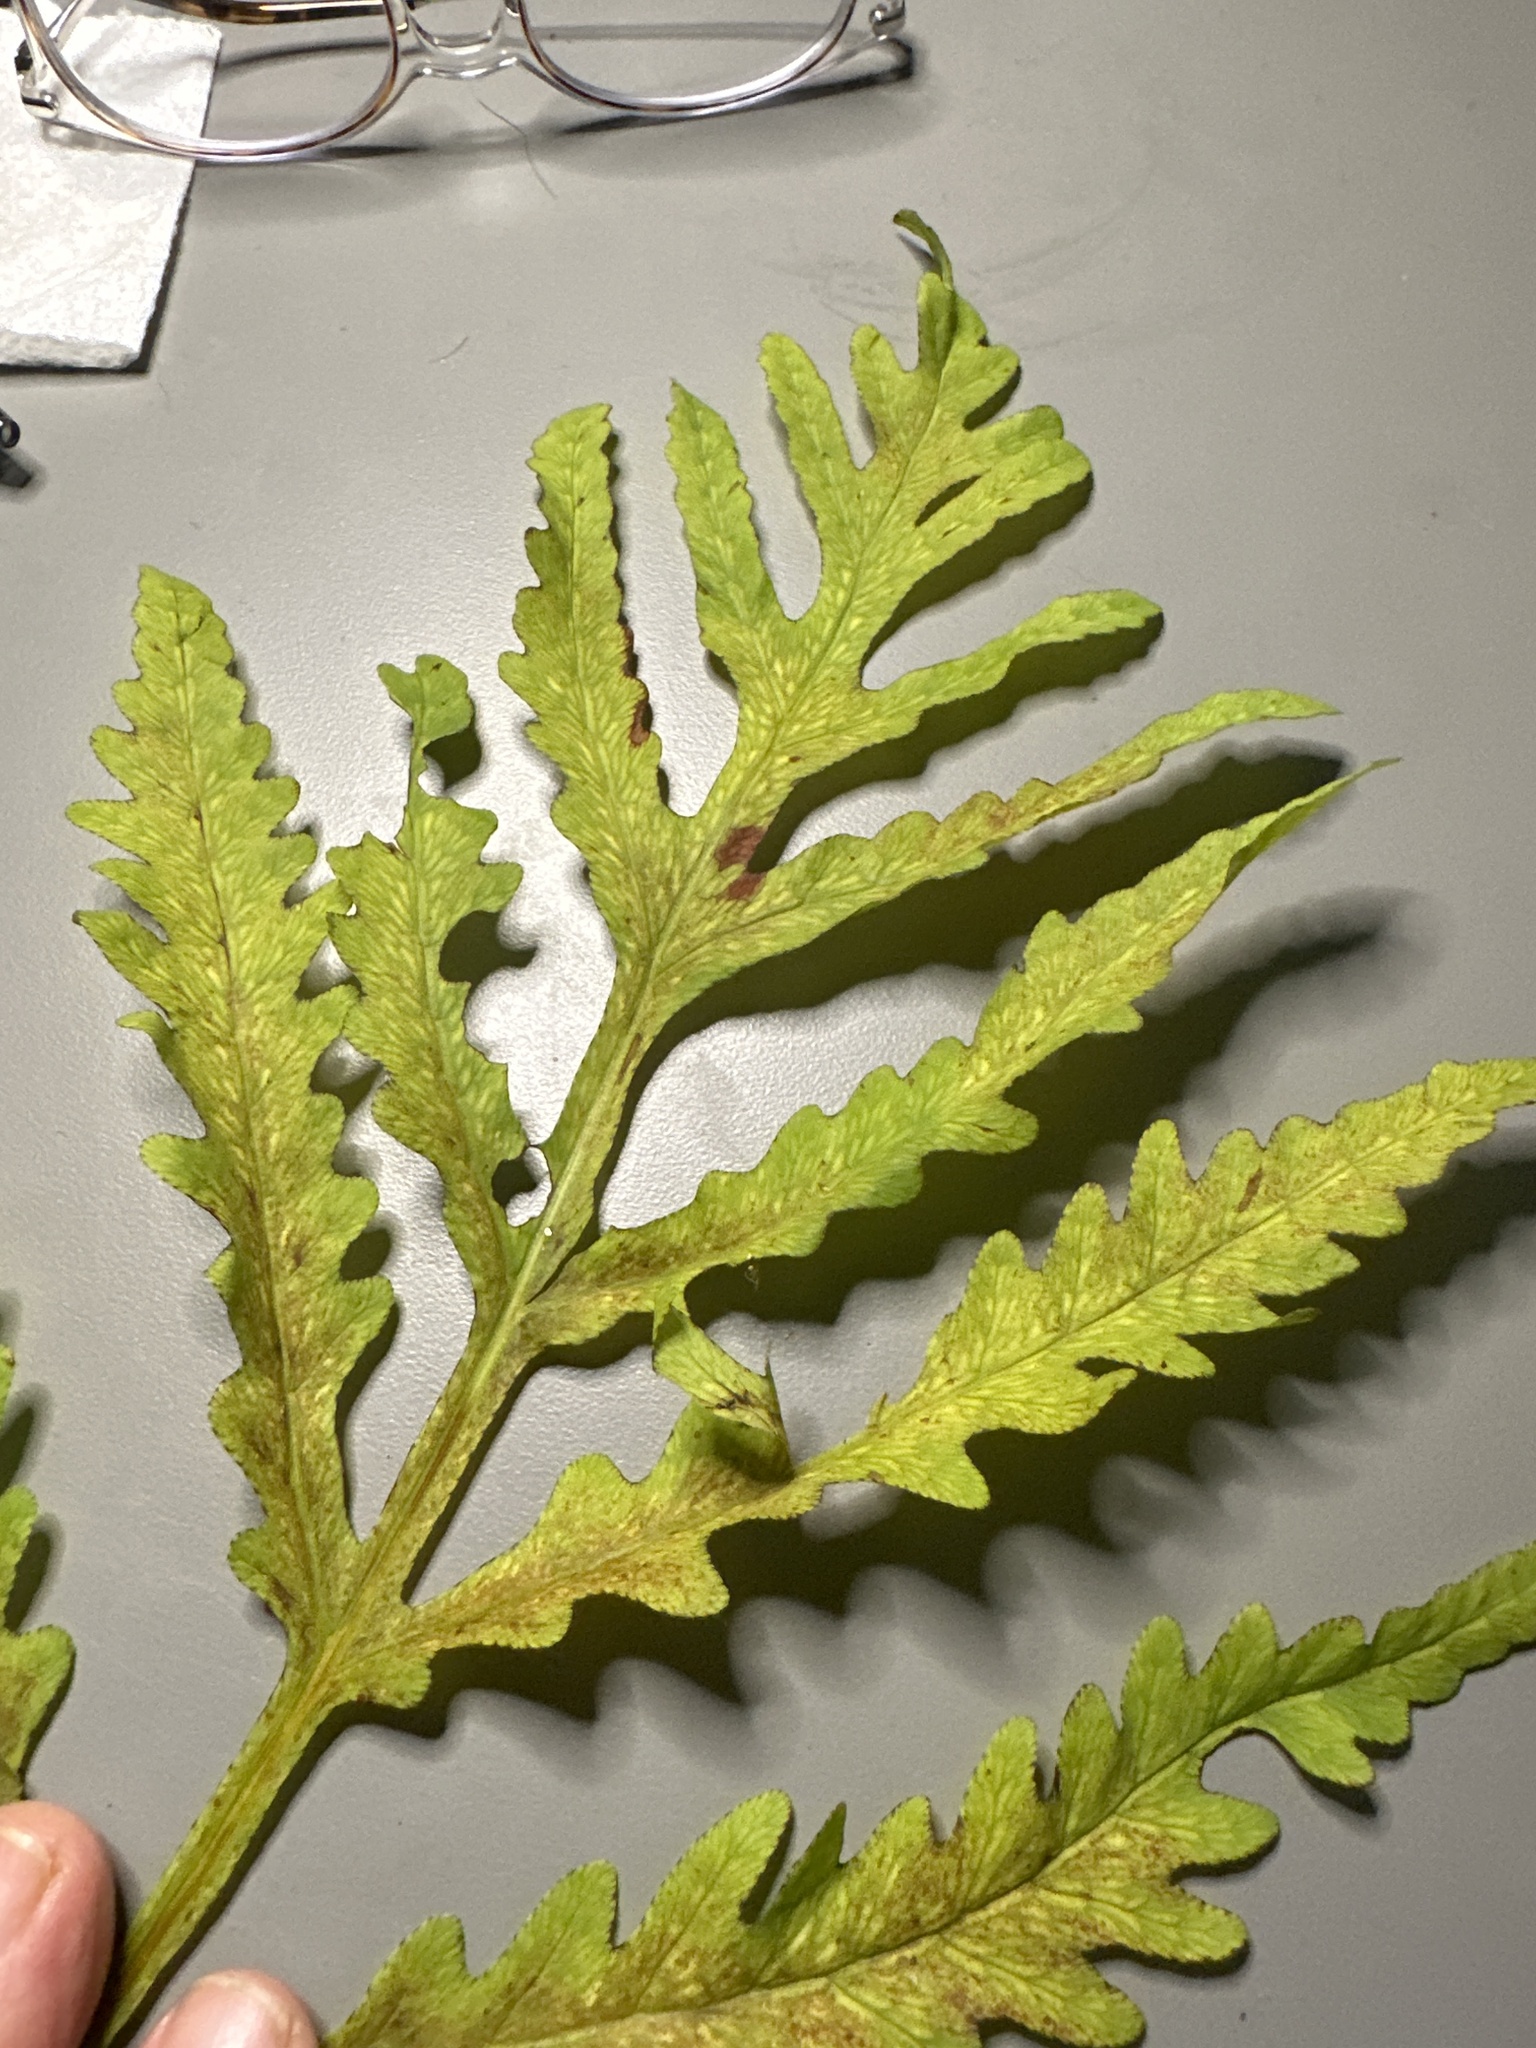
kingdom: Plantae
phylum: Tracheophyta
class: Polypodiopsida
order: Polypodiales
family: Onocleaceae
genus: Onoclea
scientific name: Onoclea sensibilis
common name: Sensitive fern
